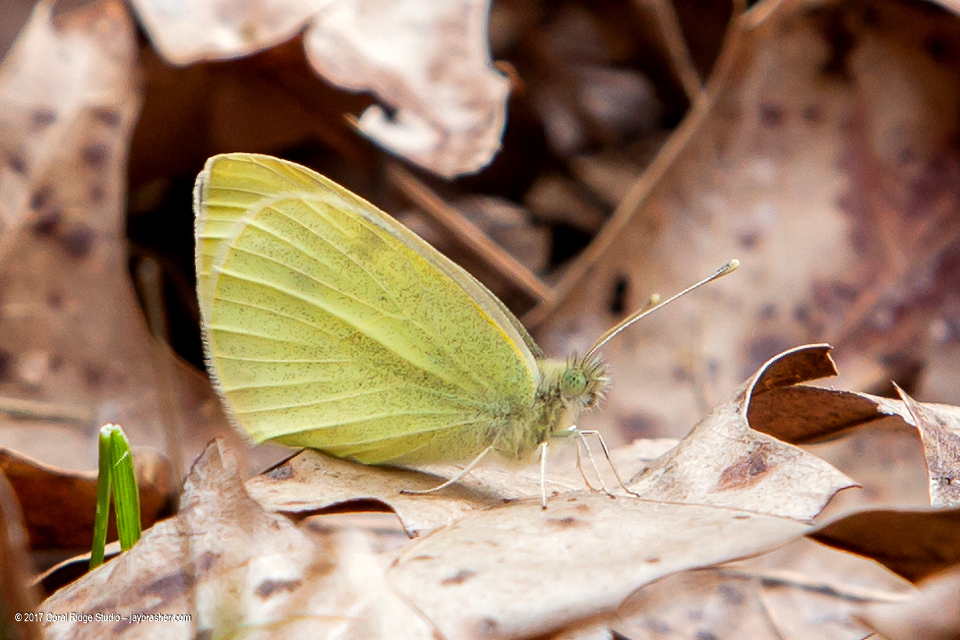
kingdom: Animalia
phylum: Arthropoda
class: Insecta
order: Lepidoptera
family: Pieridae
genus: Pieris
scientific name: Pieris rapae
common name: Small white
